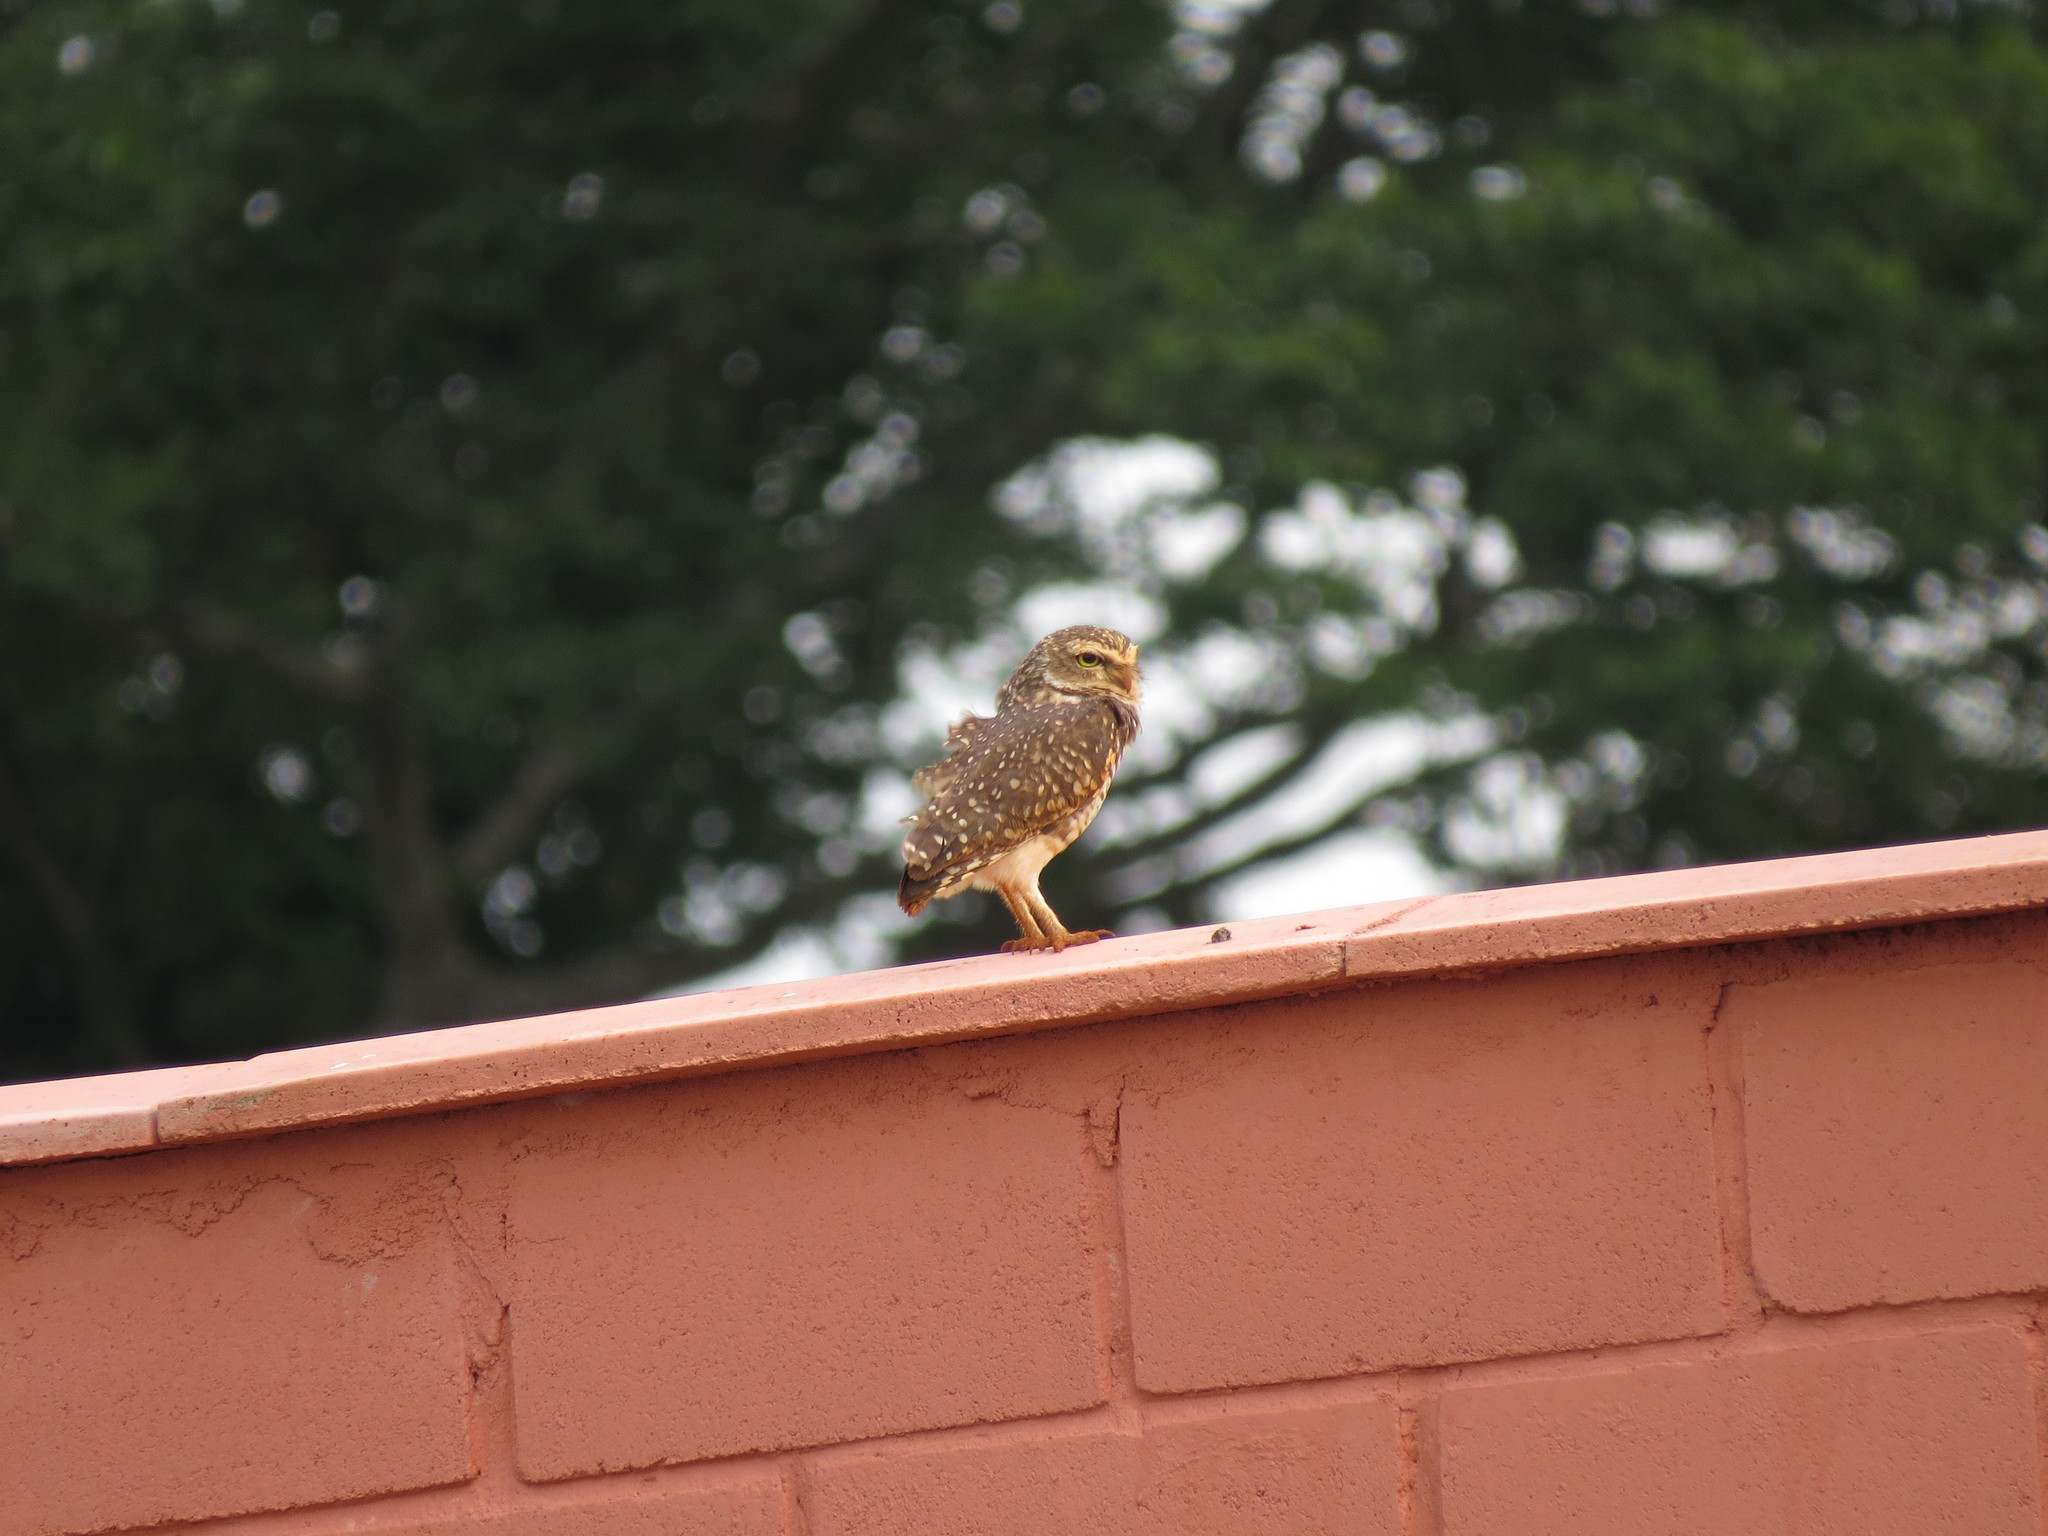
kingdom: Animalia
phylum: Chordata
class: Aves
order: Strigiformes
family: Strigidae
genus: Athene
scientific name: Athene cunicularia
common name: Burrowing owl
